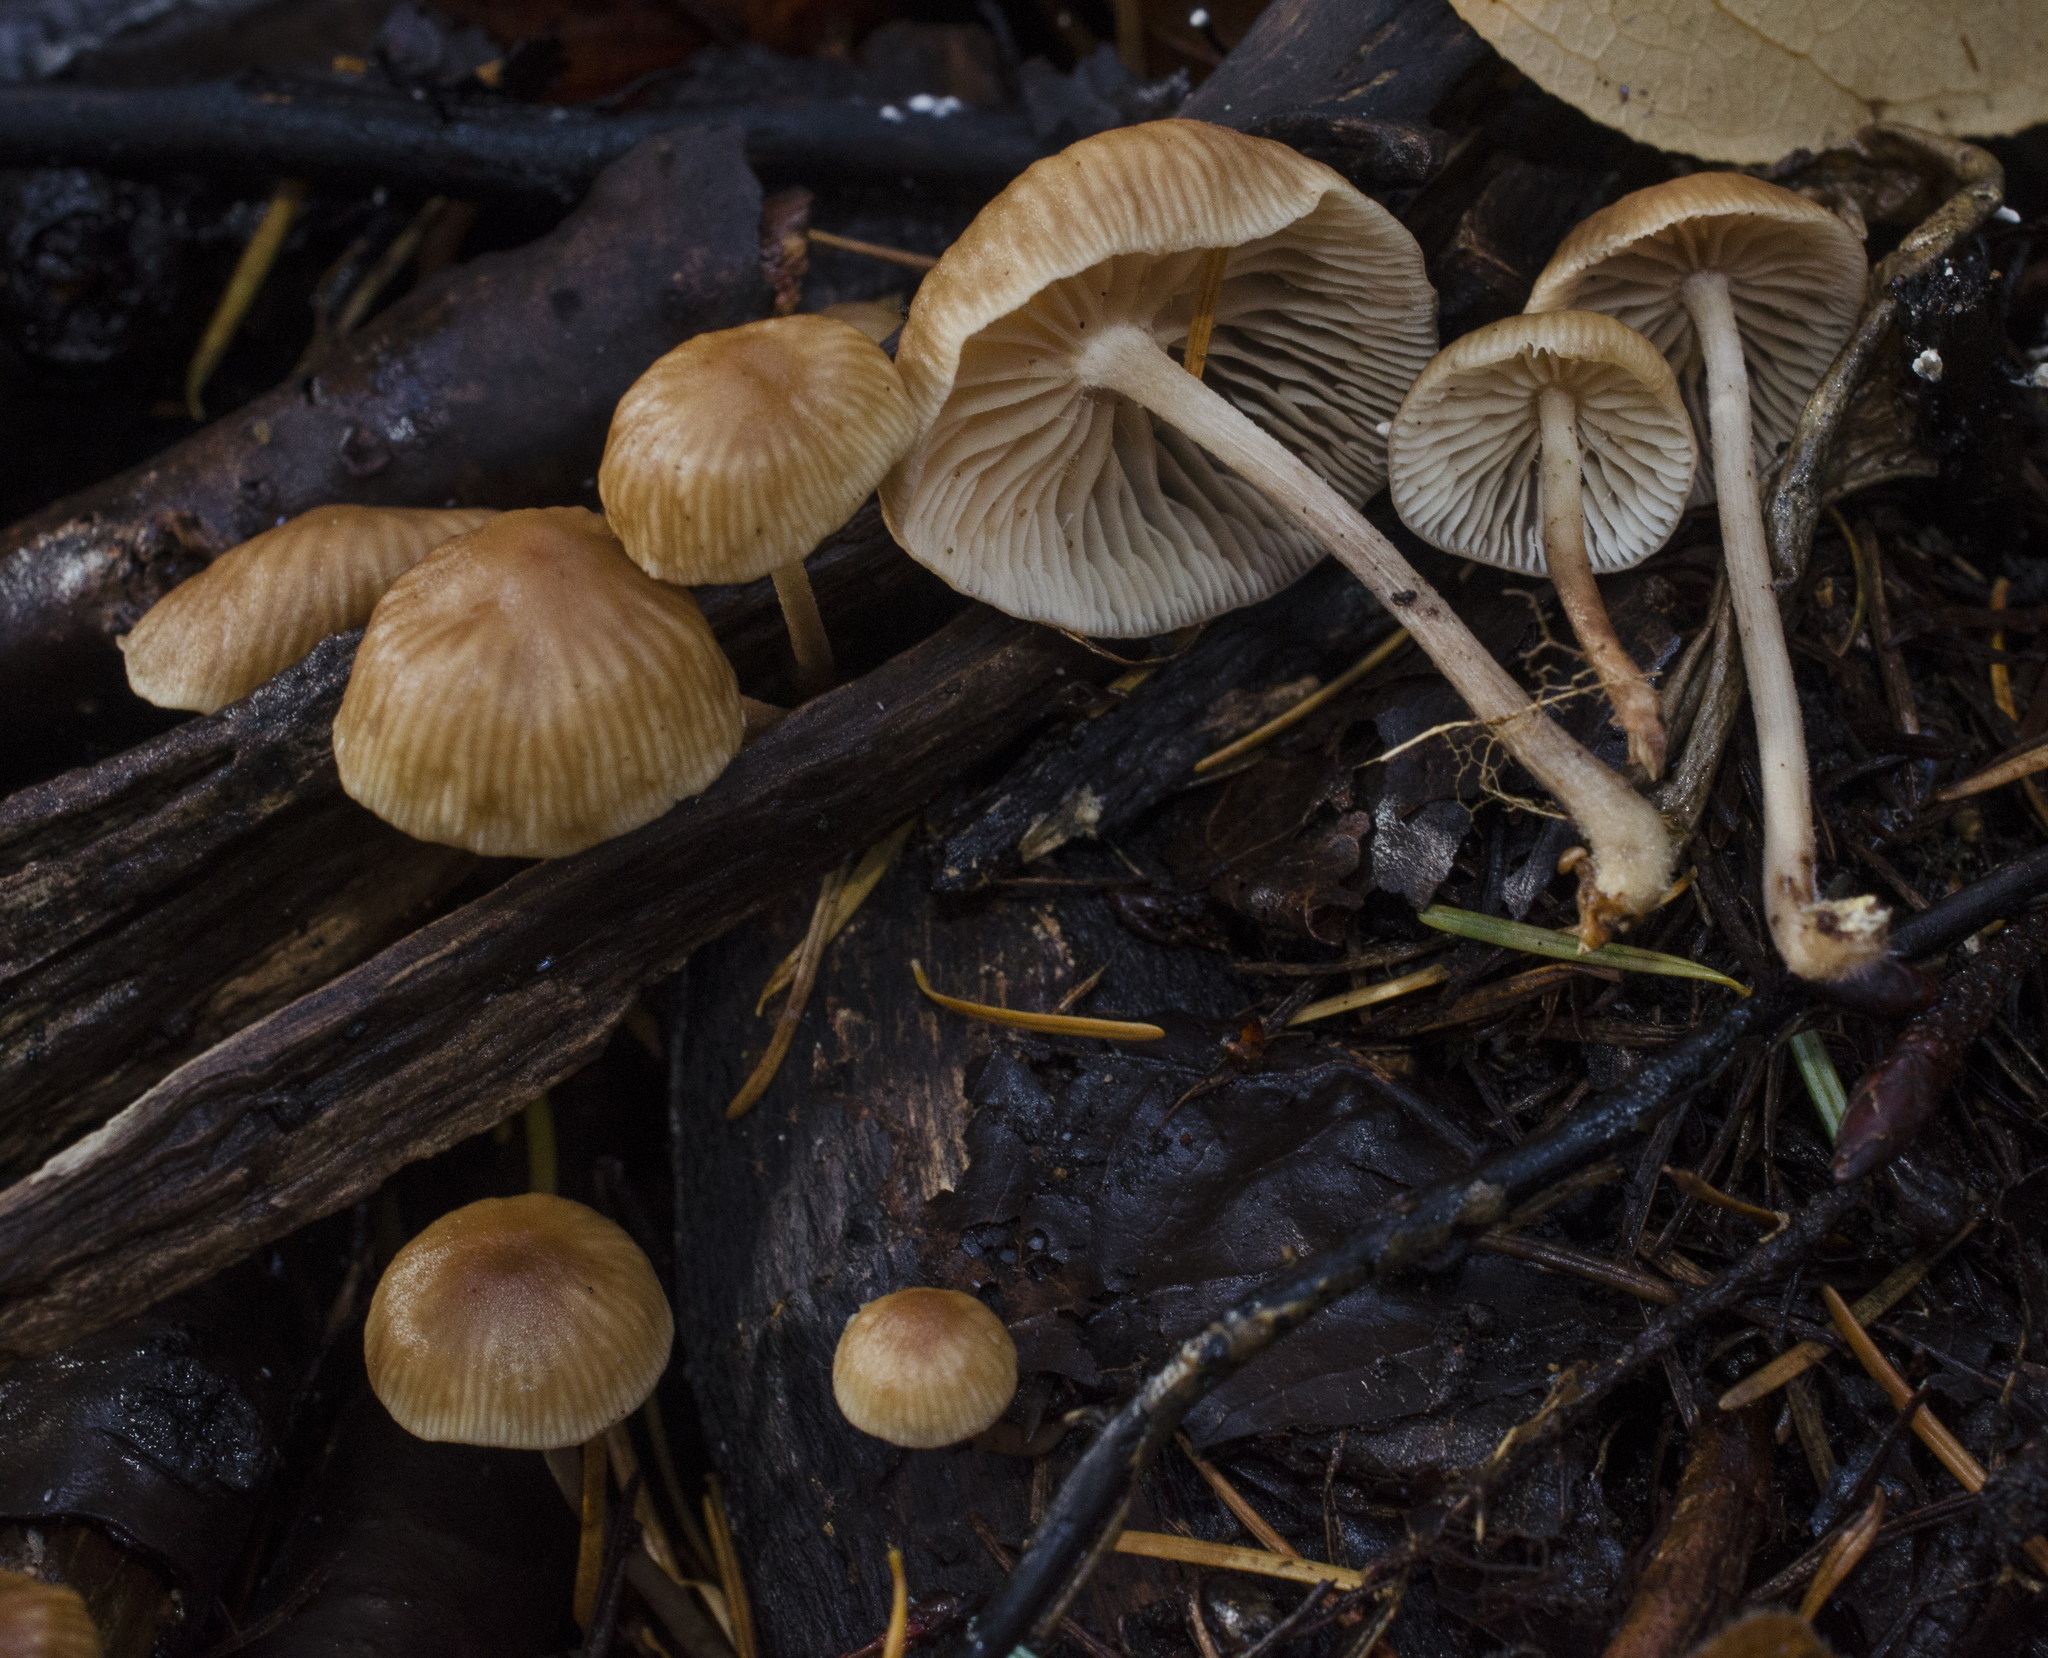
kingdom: Fungi
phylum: Basidiomycota
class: Agaricomycetes
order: Agaricales
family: Omphalotaceae
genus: Collybiopsis
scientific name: Collybiopsis subpruinosa
